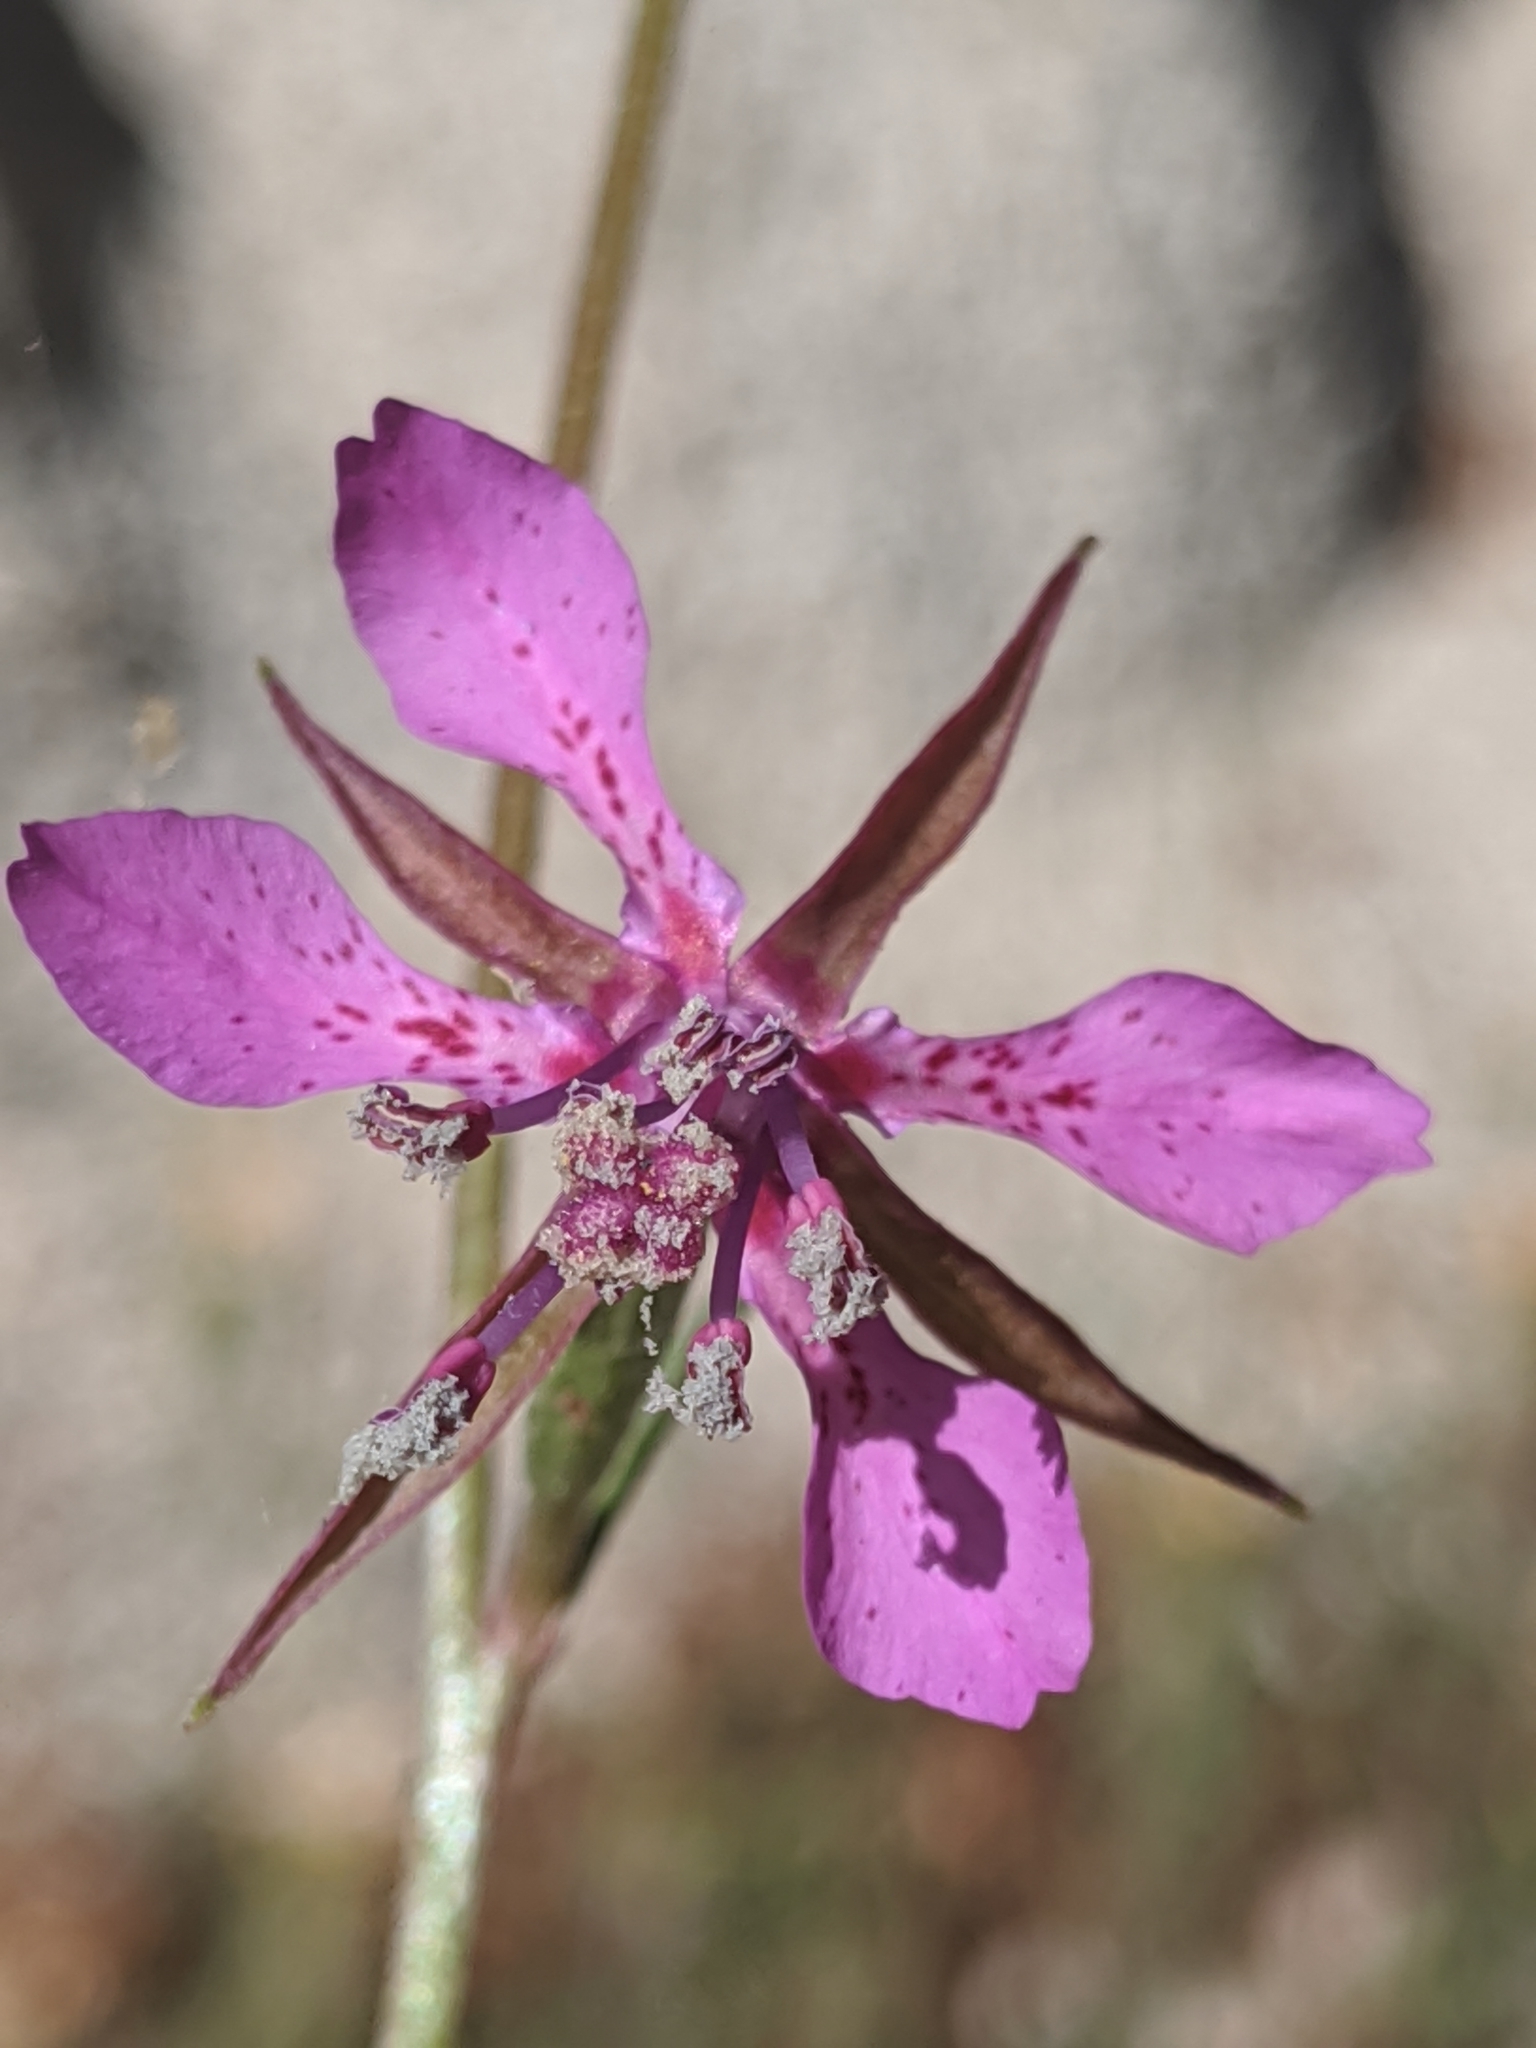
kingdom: Plantae
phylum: Tracheophyta
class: Magnoliopsida
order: Myrtales
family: Onagraceae
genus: Clarkia
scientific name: Clarkia rhomboidea
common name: Broadleaf clarkia
